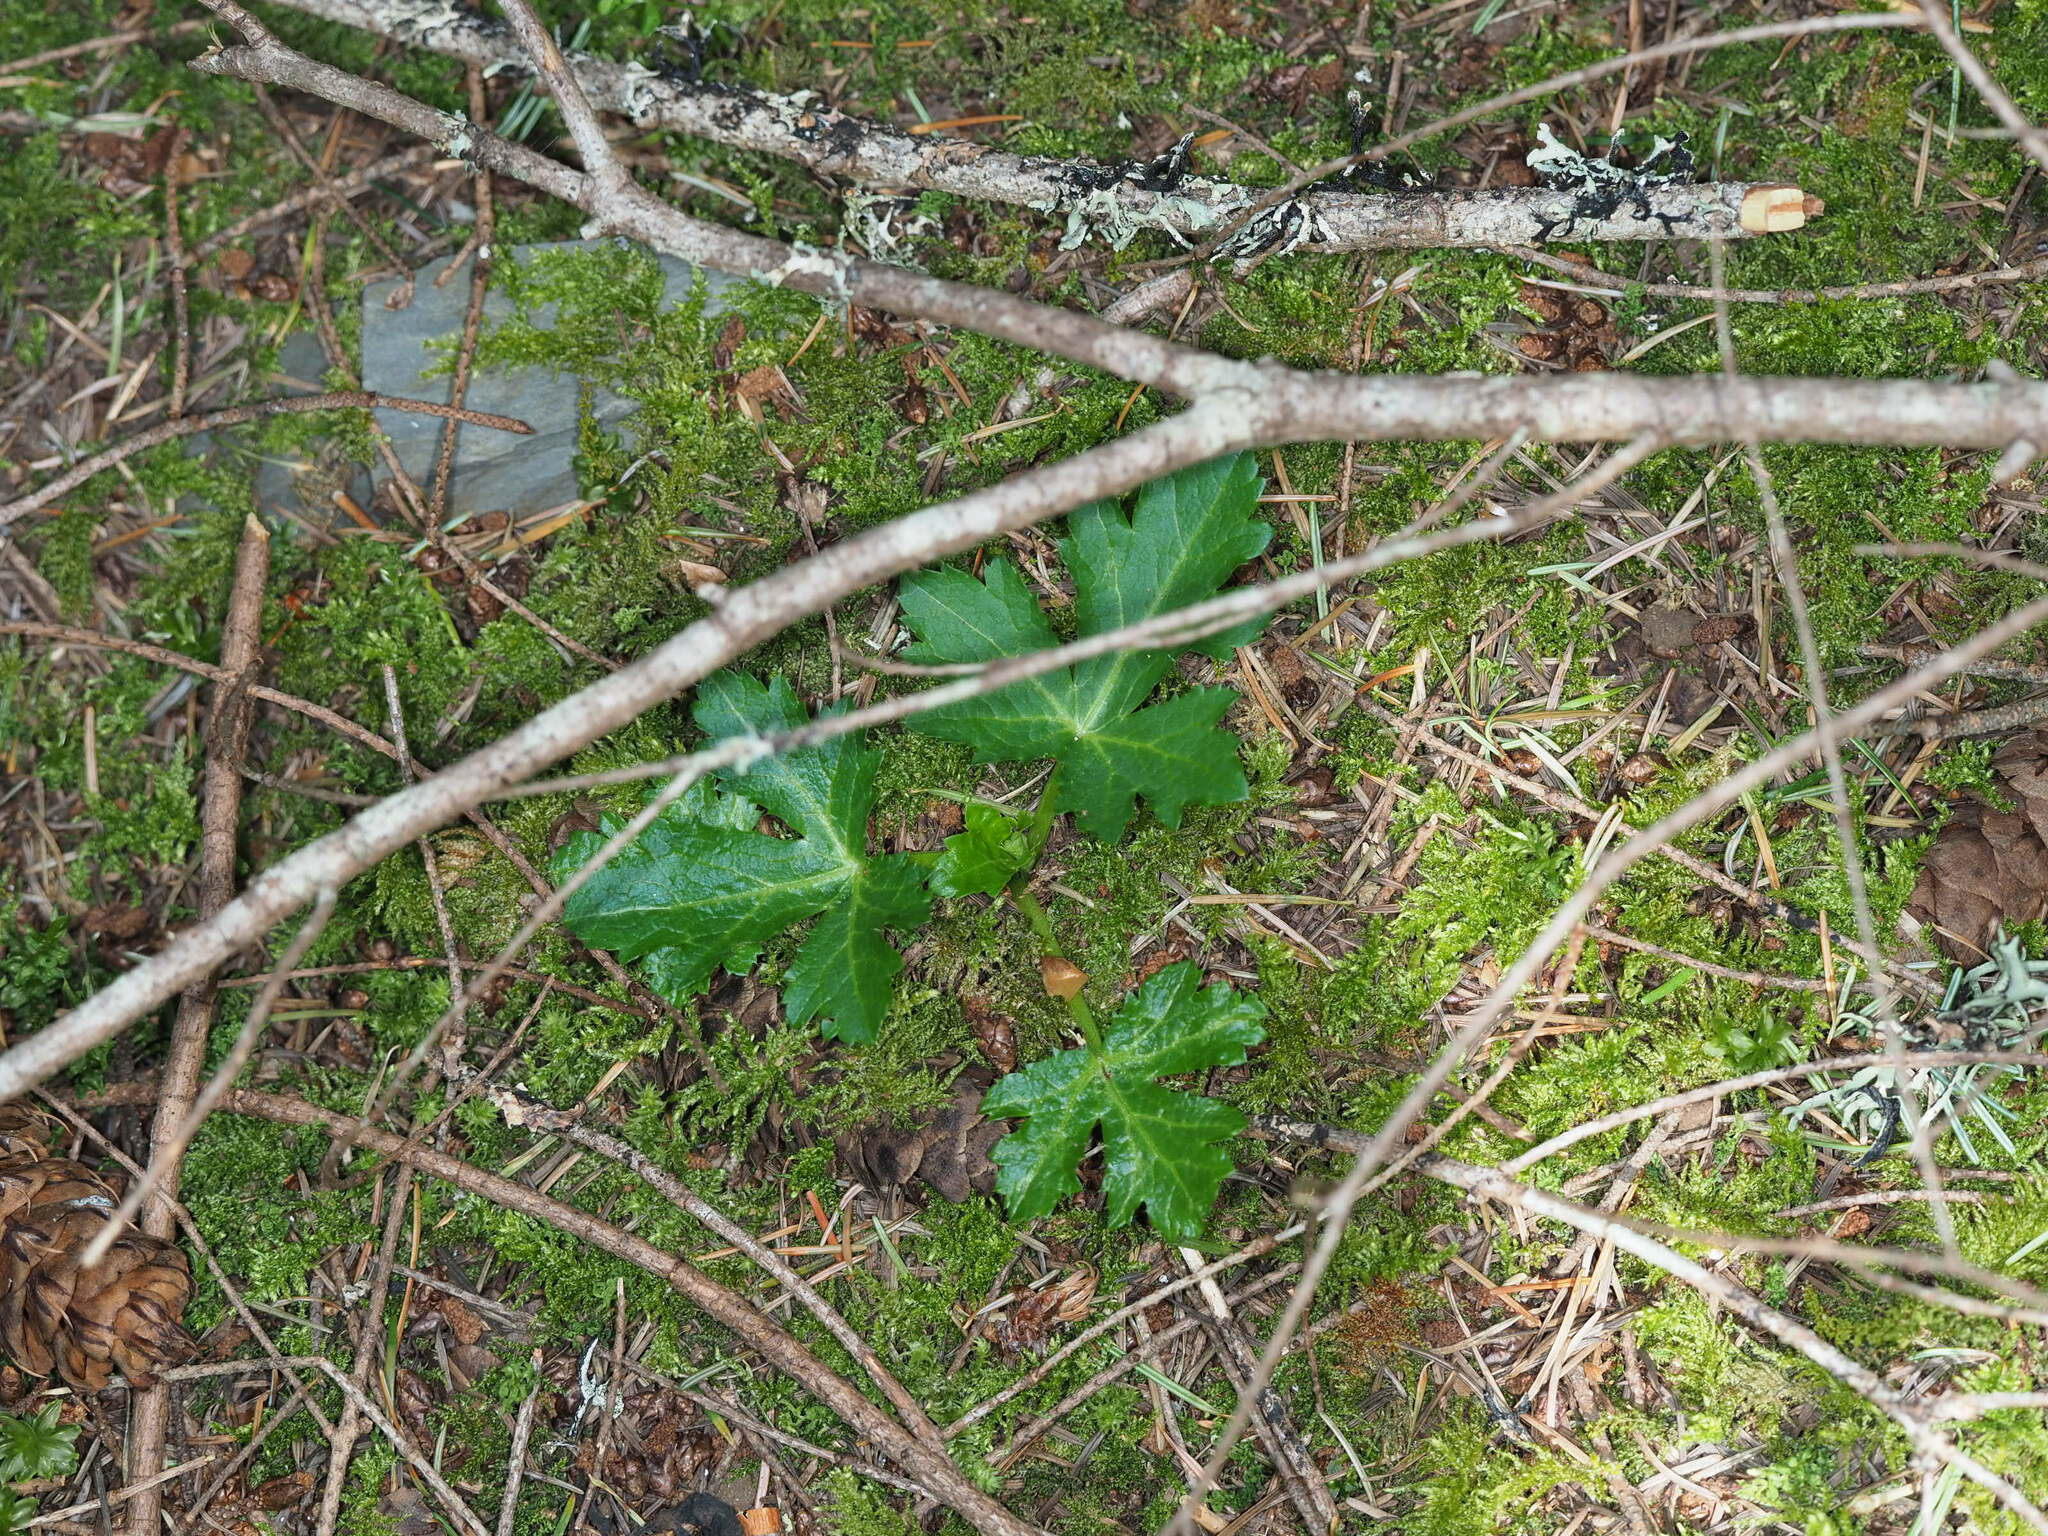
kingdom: Plantae
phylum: Tracheophyta
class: Magnoliopsida
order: Apiales
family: Apiaceae
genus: Sanicula
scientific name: Sanicula crassicaulis
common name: Western snakeroot
